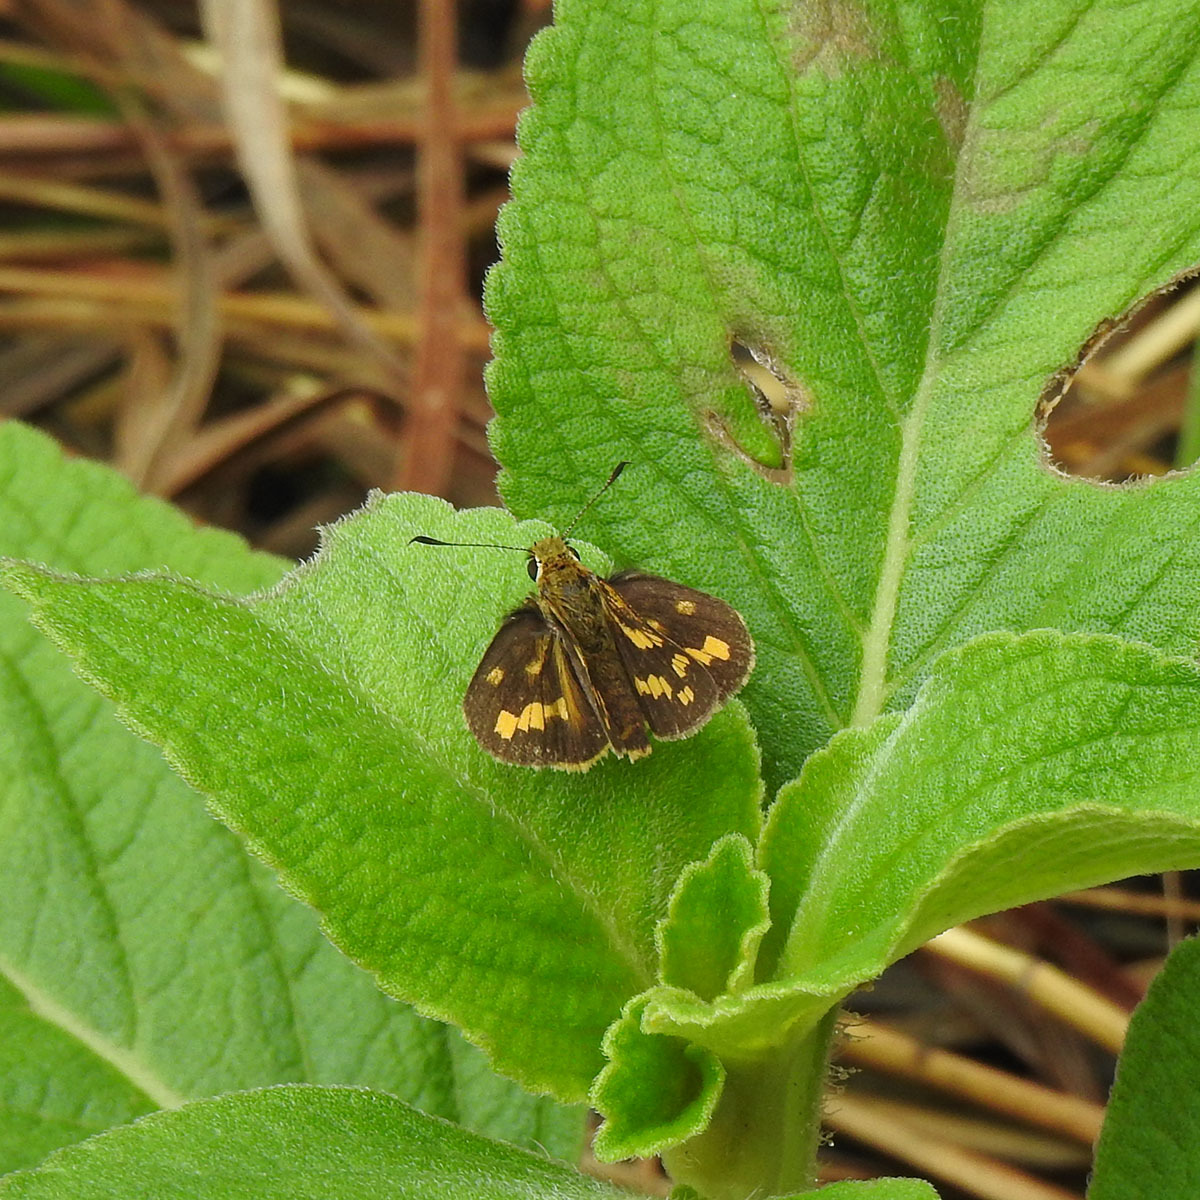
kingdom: Animalia
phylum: Arthropoda
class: Insecta
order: Lepidoptera
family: Hesperiidae
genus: Potanthus
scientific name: Potanthus pallida
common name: Pallid dart
